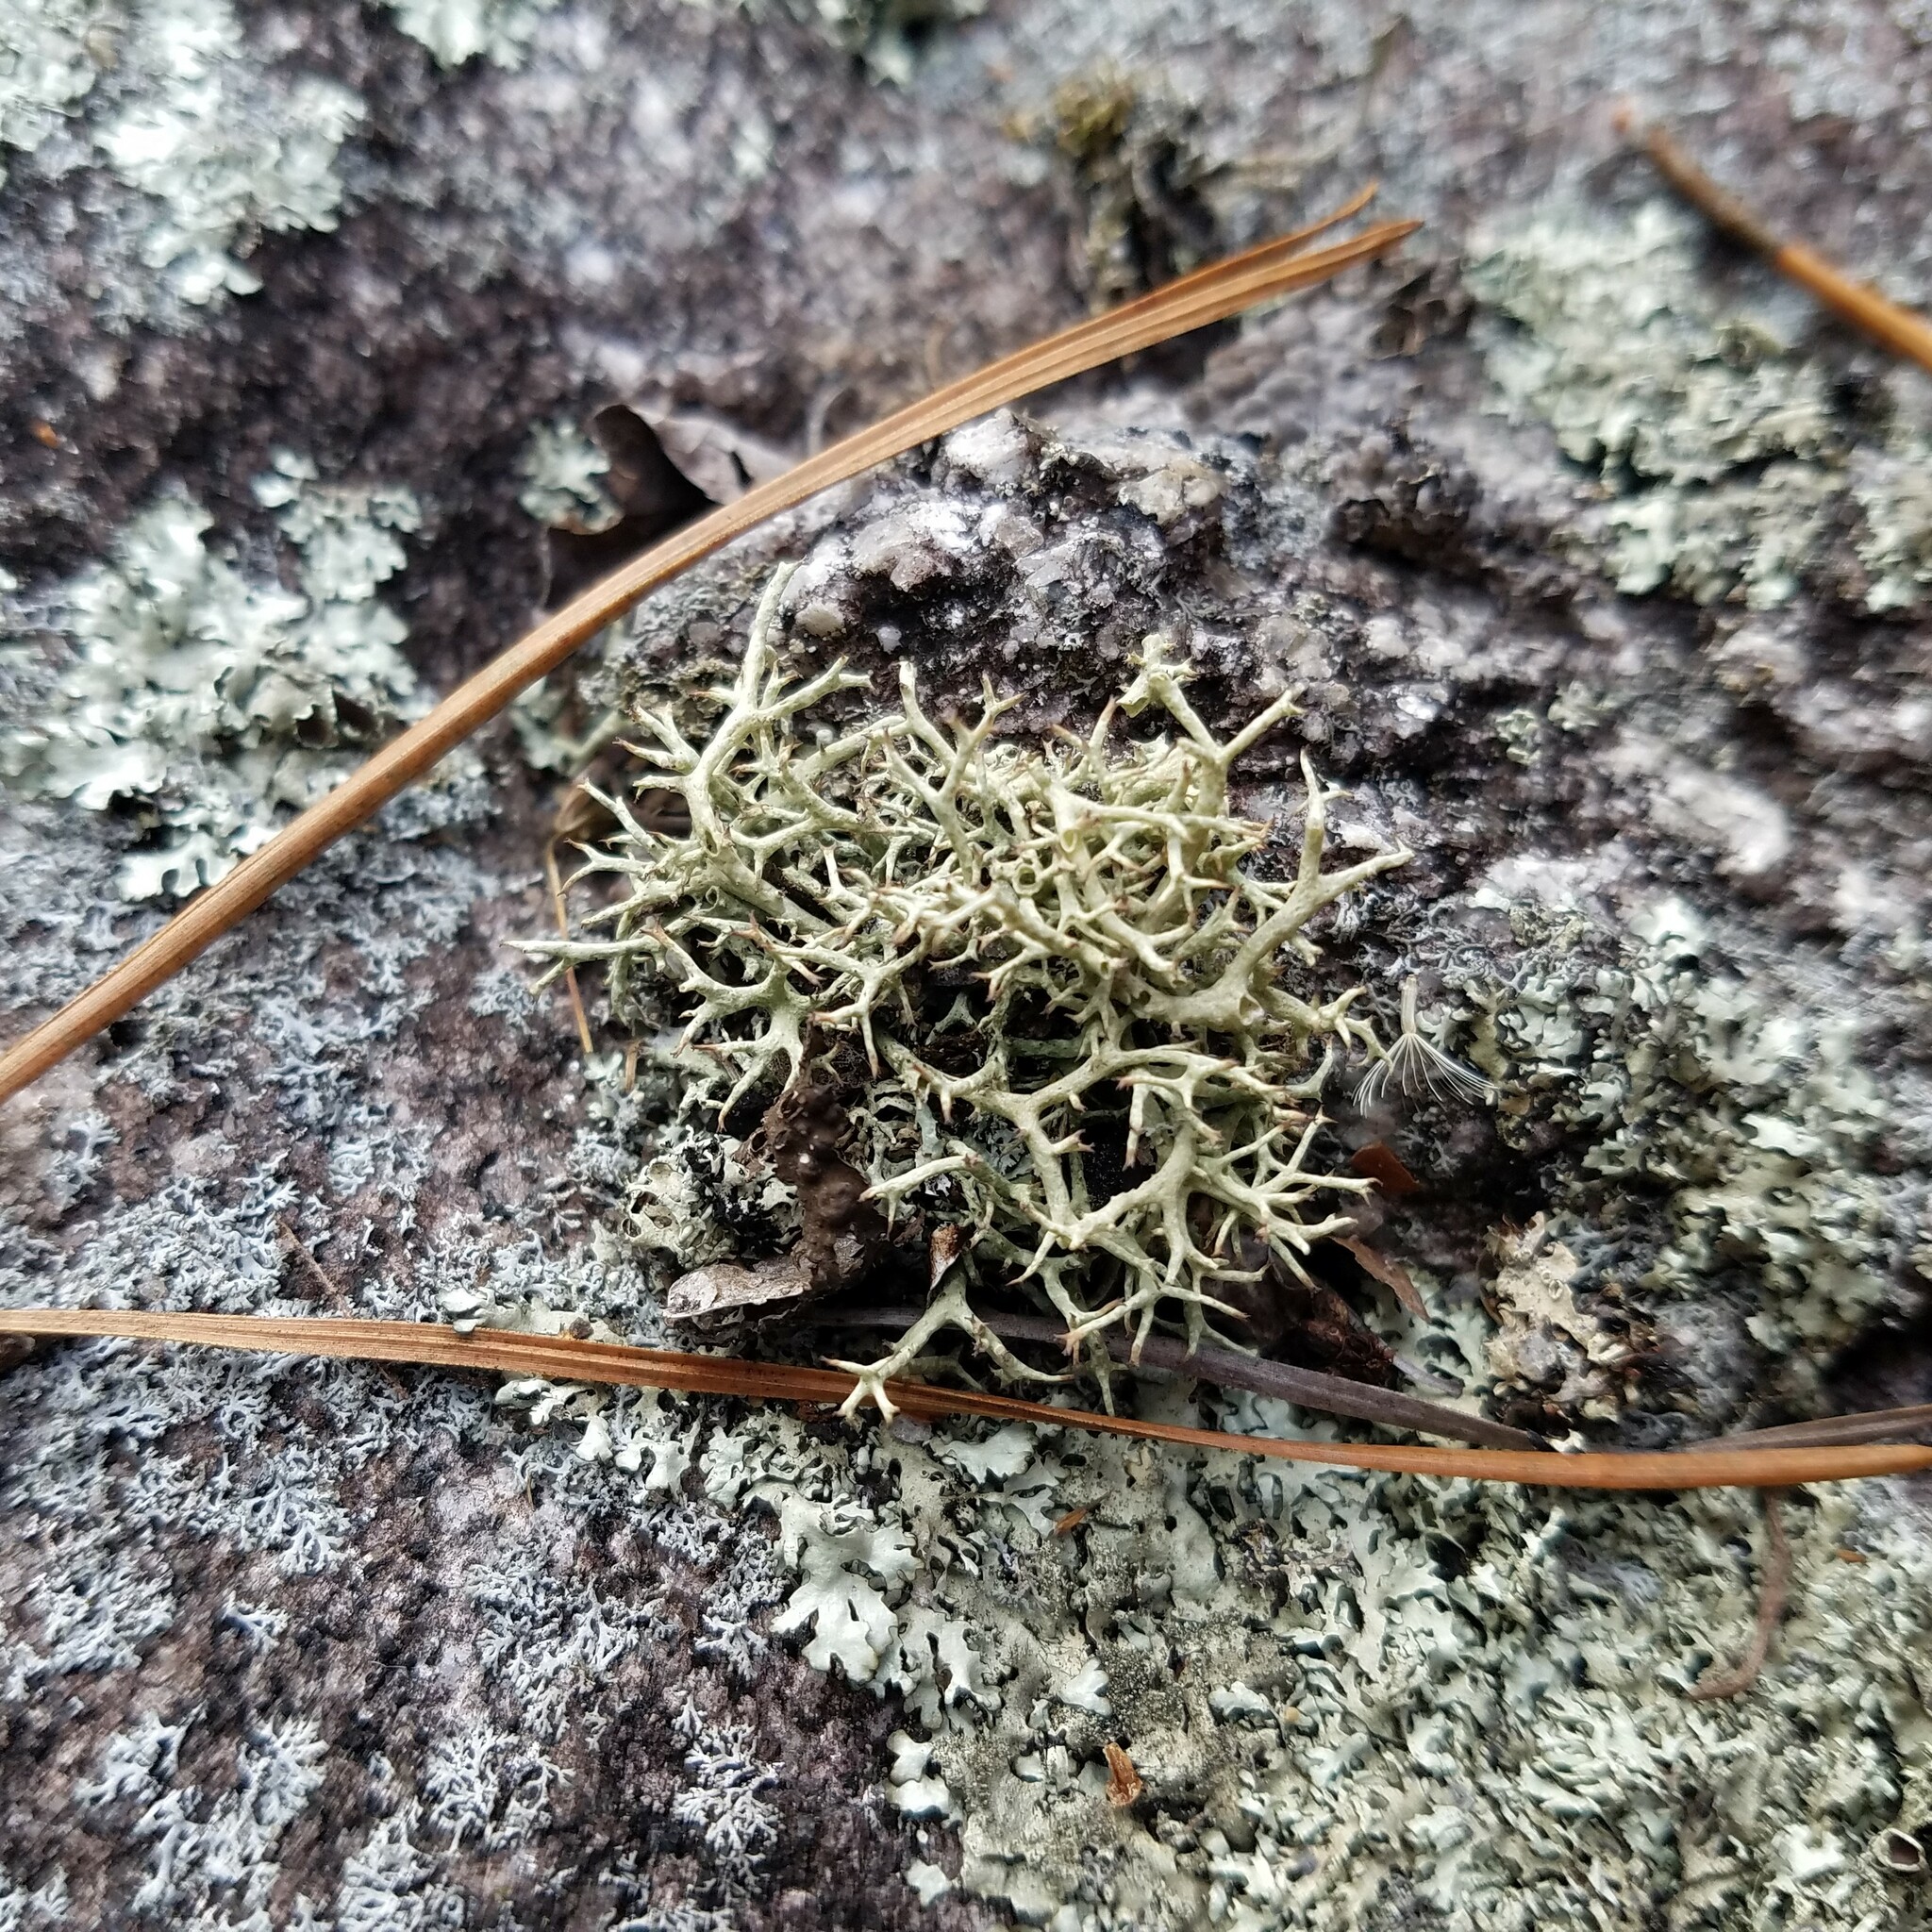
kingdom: Fungi
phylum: Ascomycota
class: Lecanoromycetes
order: Lecanorales
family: Cladoniaceae
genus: Cladonia
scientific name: Cladonia uncialis
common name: Thorn lichen
